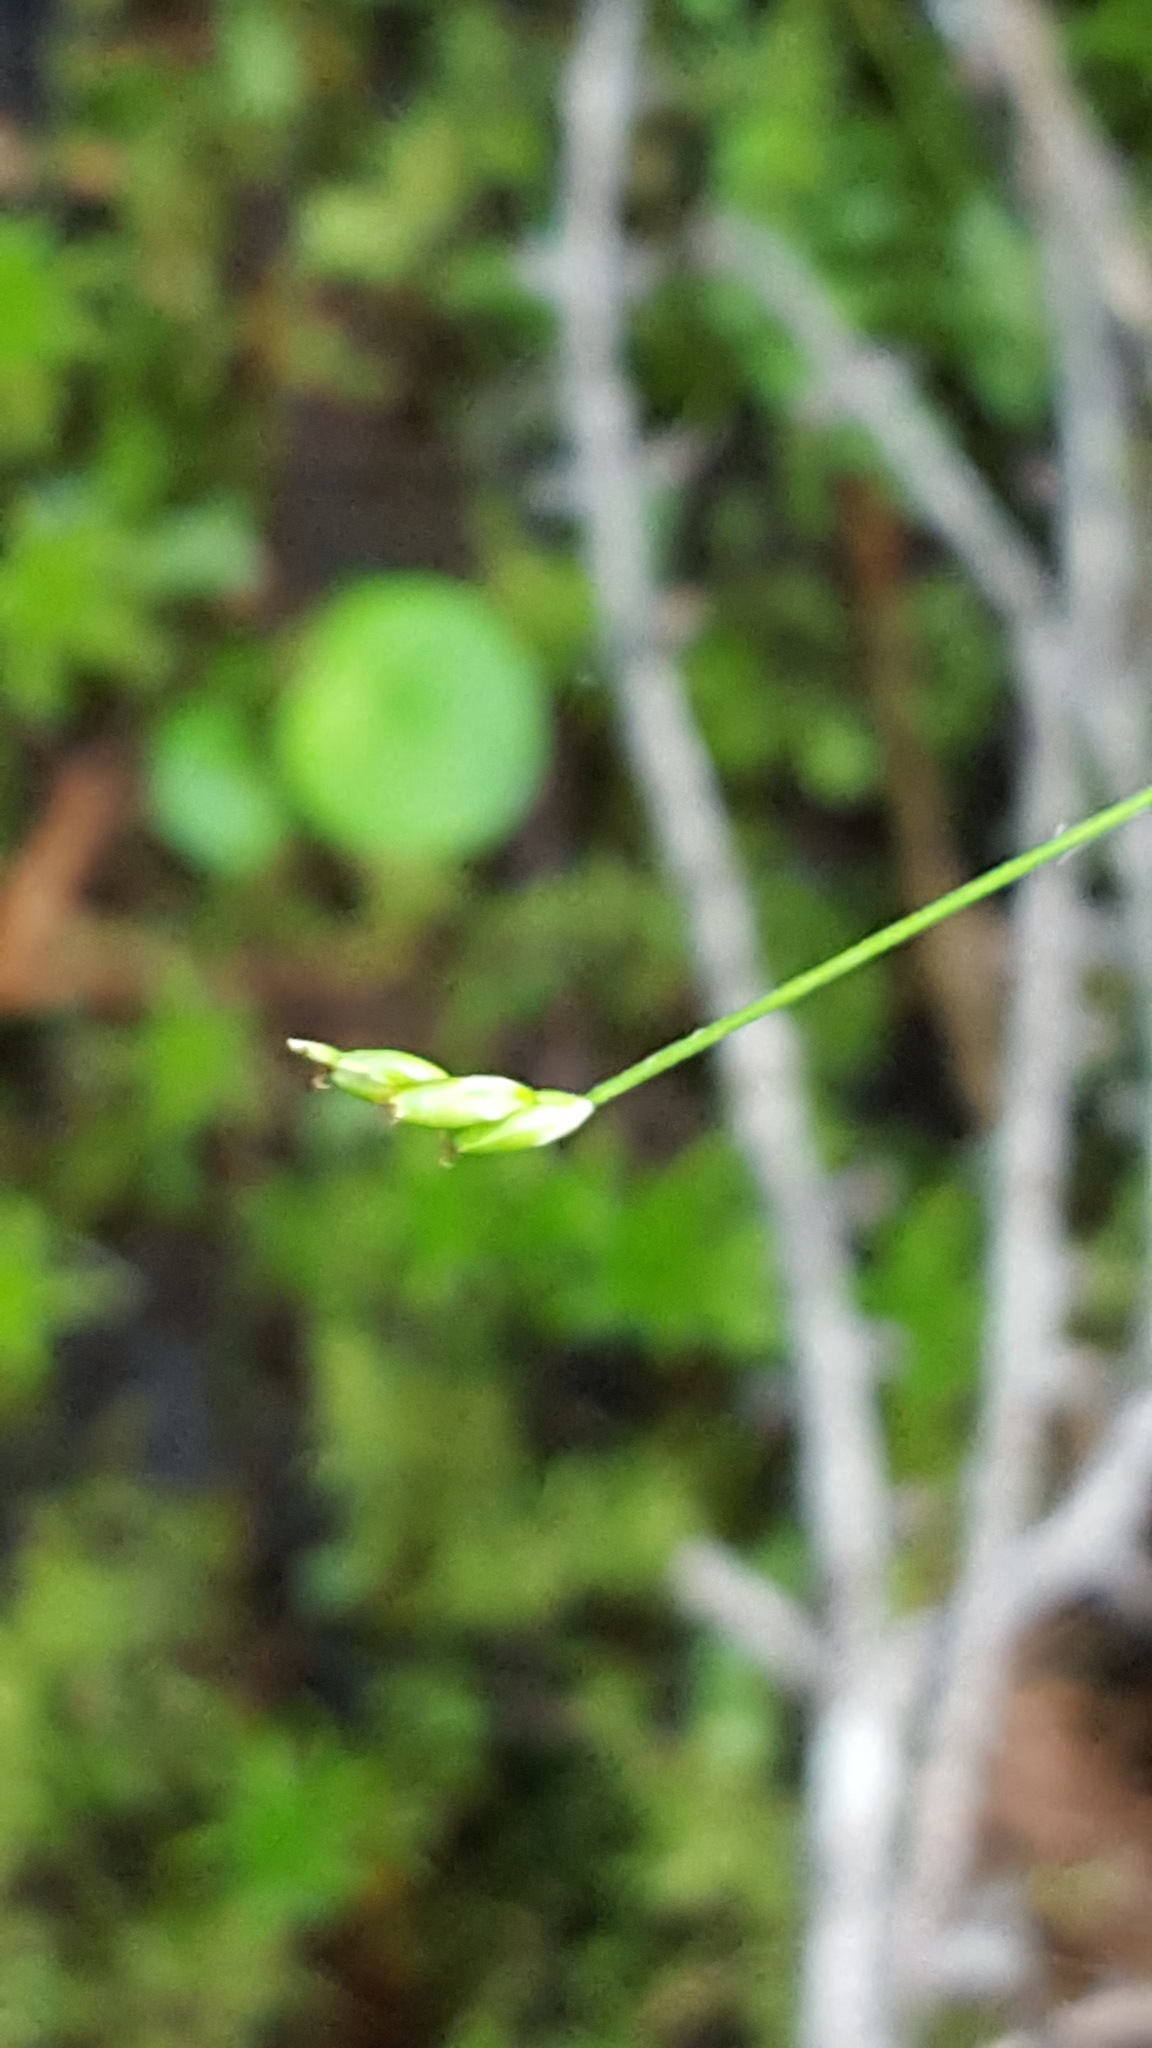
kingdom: Plantae
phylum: Tracheophyta
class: Liliopsida
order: Poales
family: Cyperaceae
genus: Carex
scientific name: Carex leptalea
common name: Bristly-stalked sedge
